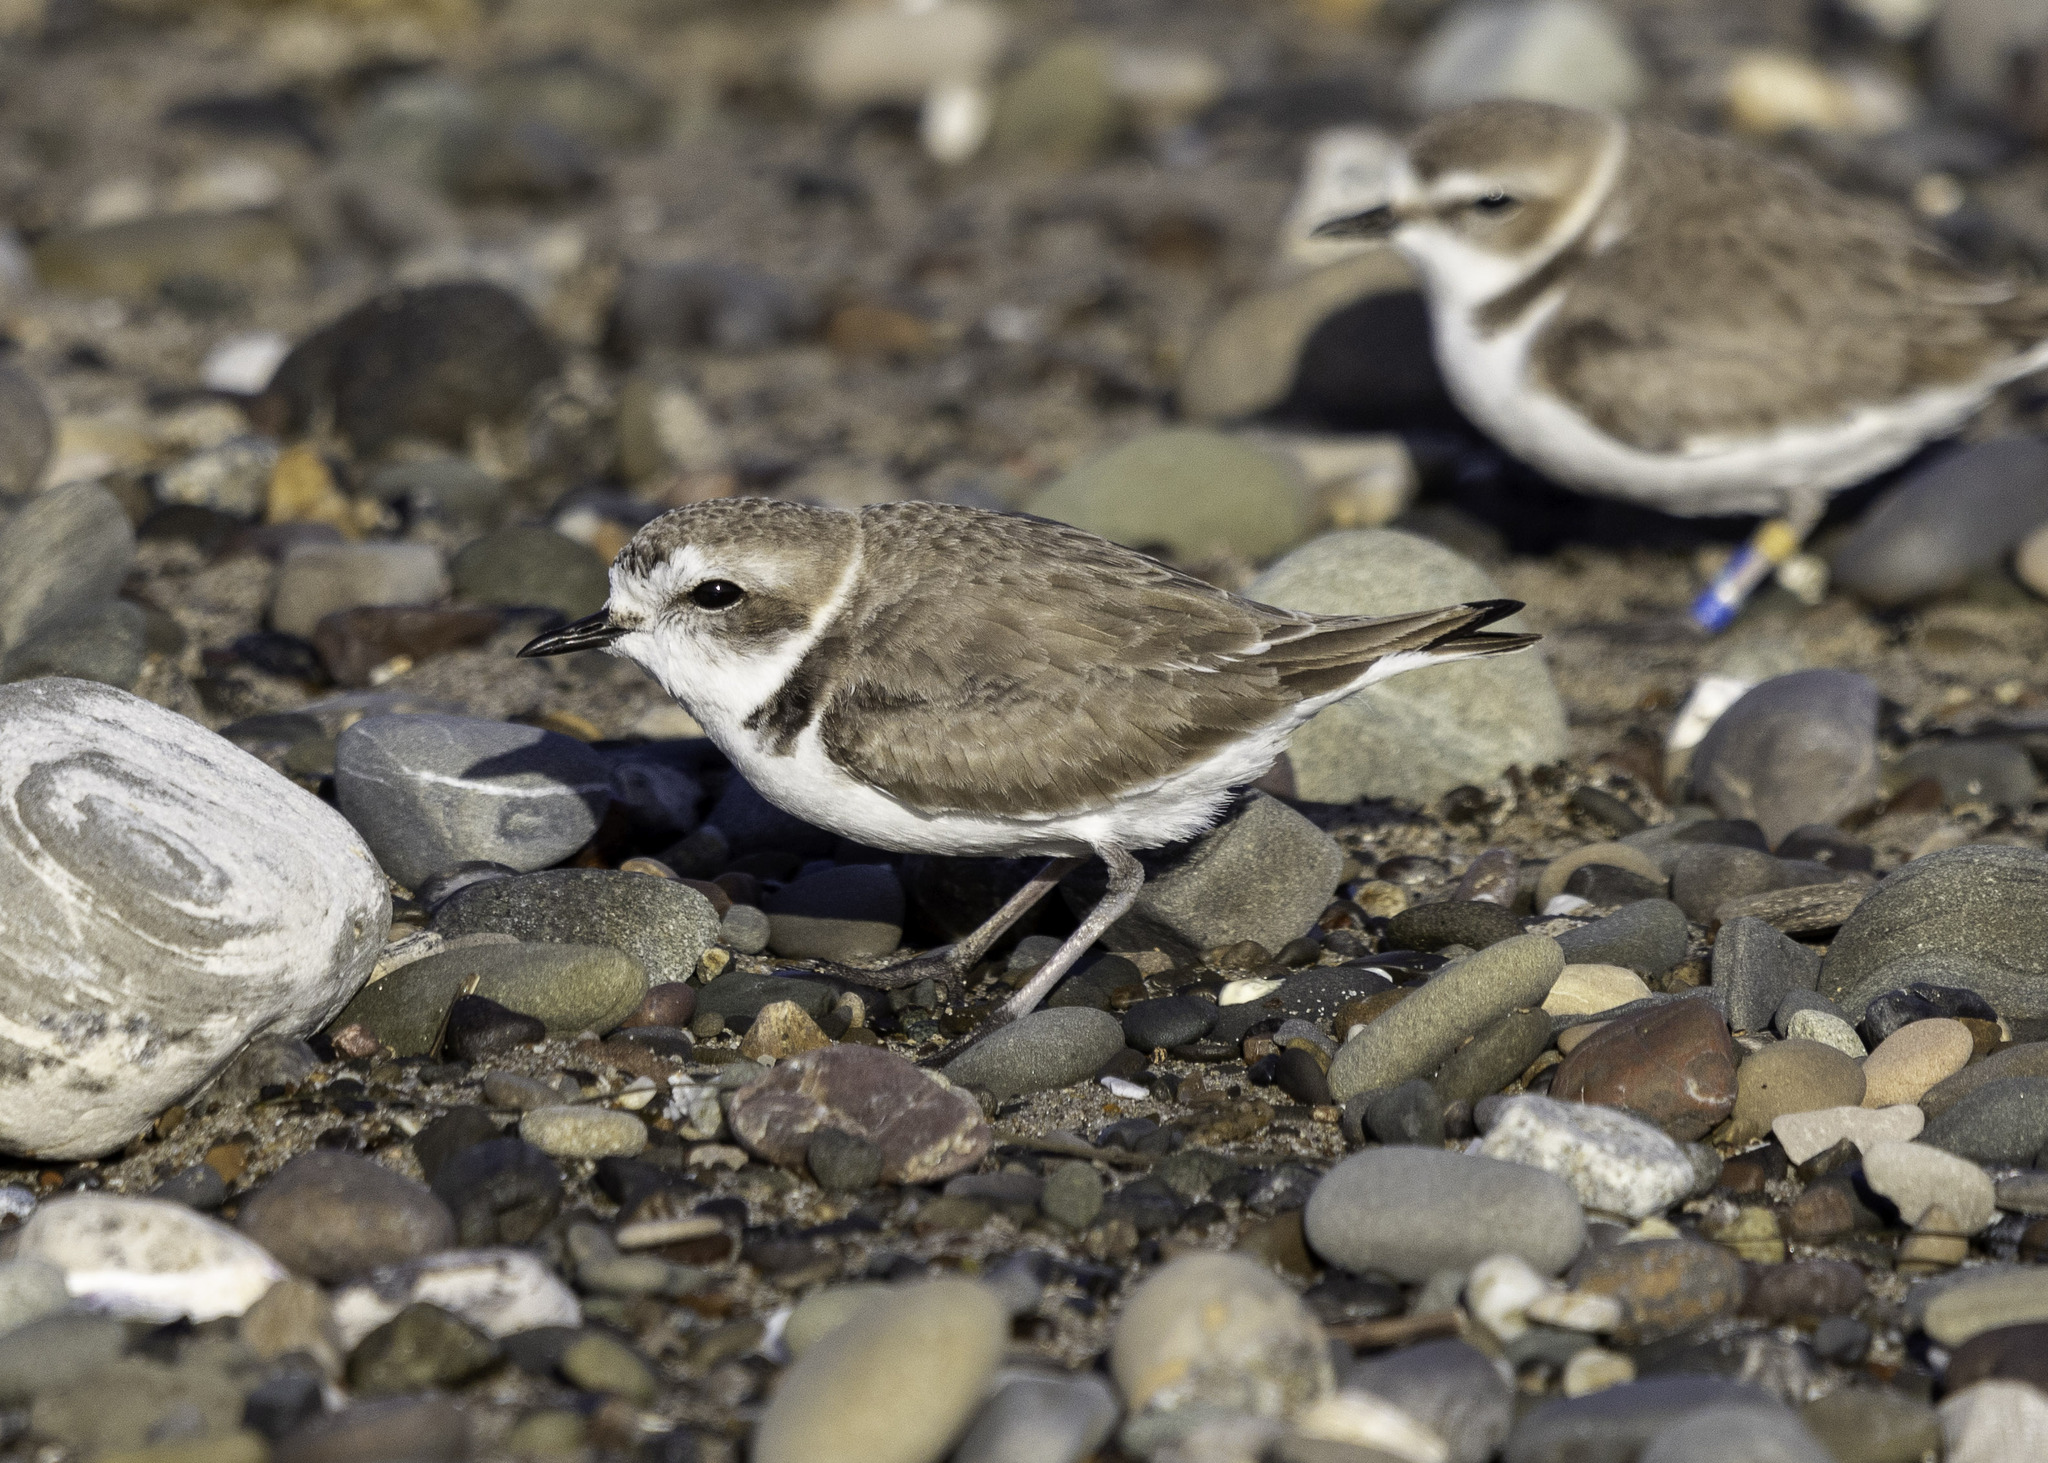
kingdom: Animalia
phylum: Chordata
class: Aves
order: Charadriiformes
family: Charadriidae
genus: Anarhynchus
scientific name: Anarhynchus
